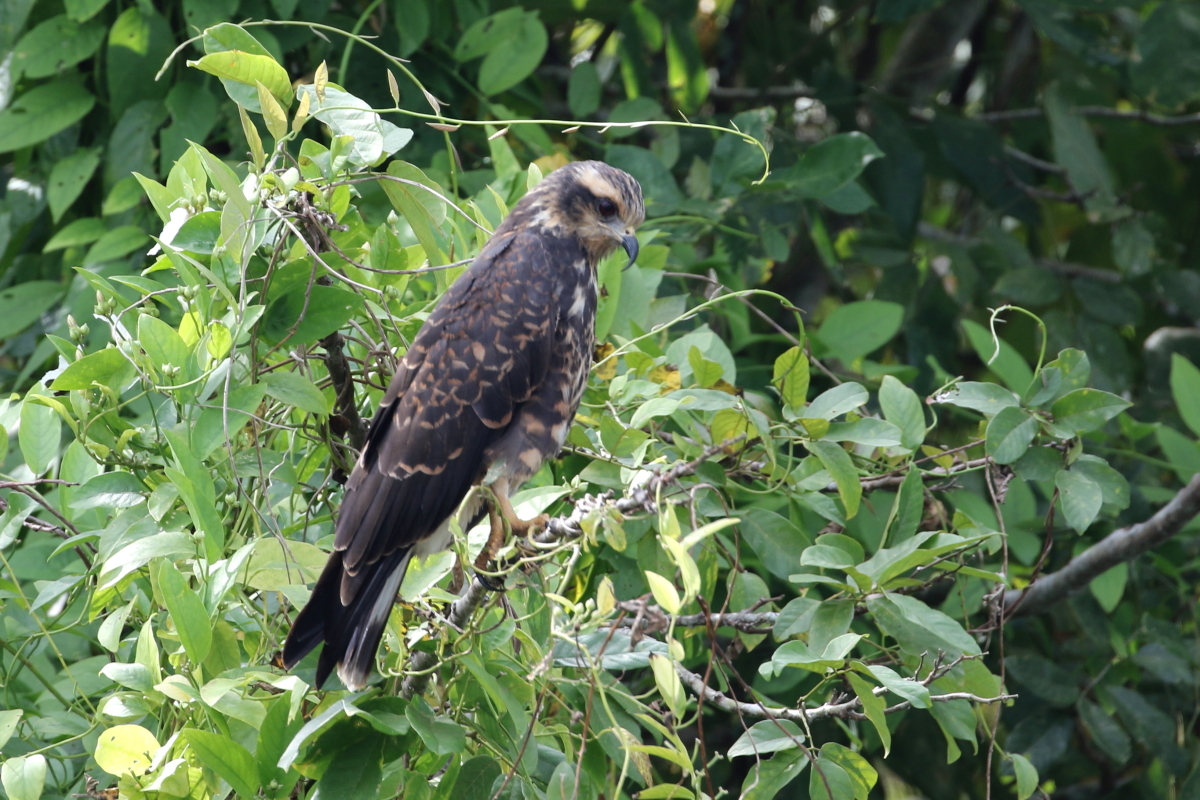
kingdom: Animalia
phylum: Chordata
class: Aves
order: Accipitriformes
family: Accipitridae
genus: Rostrhamus
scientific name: Rostrhamus sociabilis
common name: Snail kite
